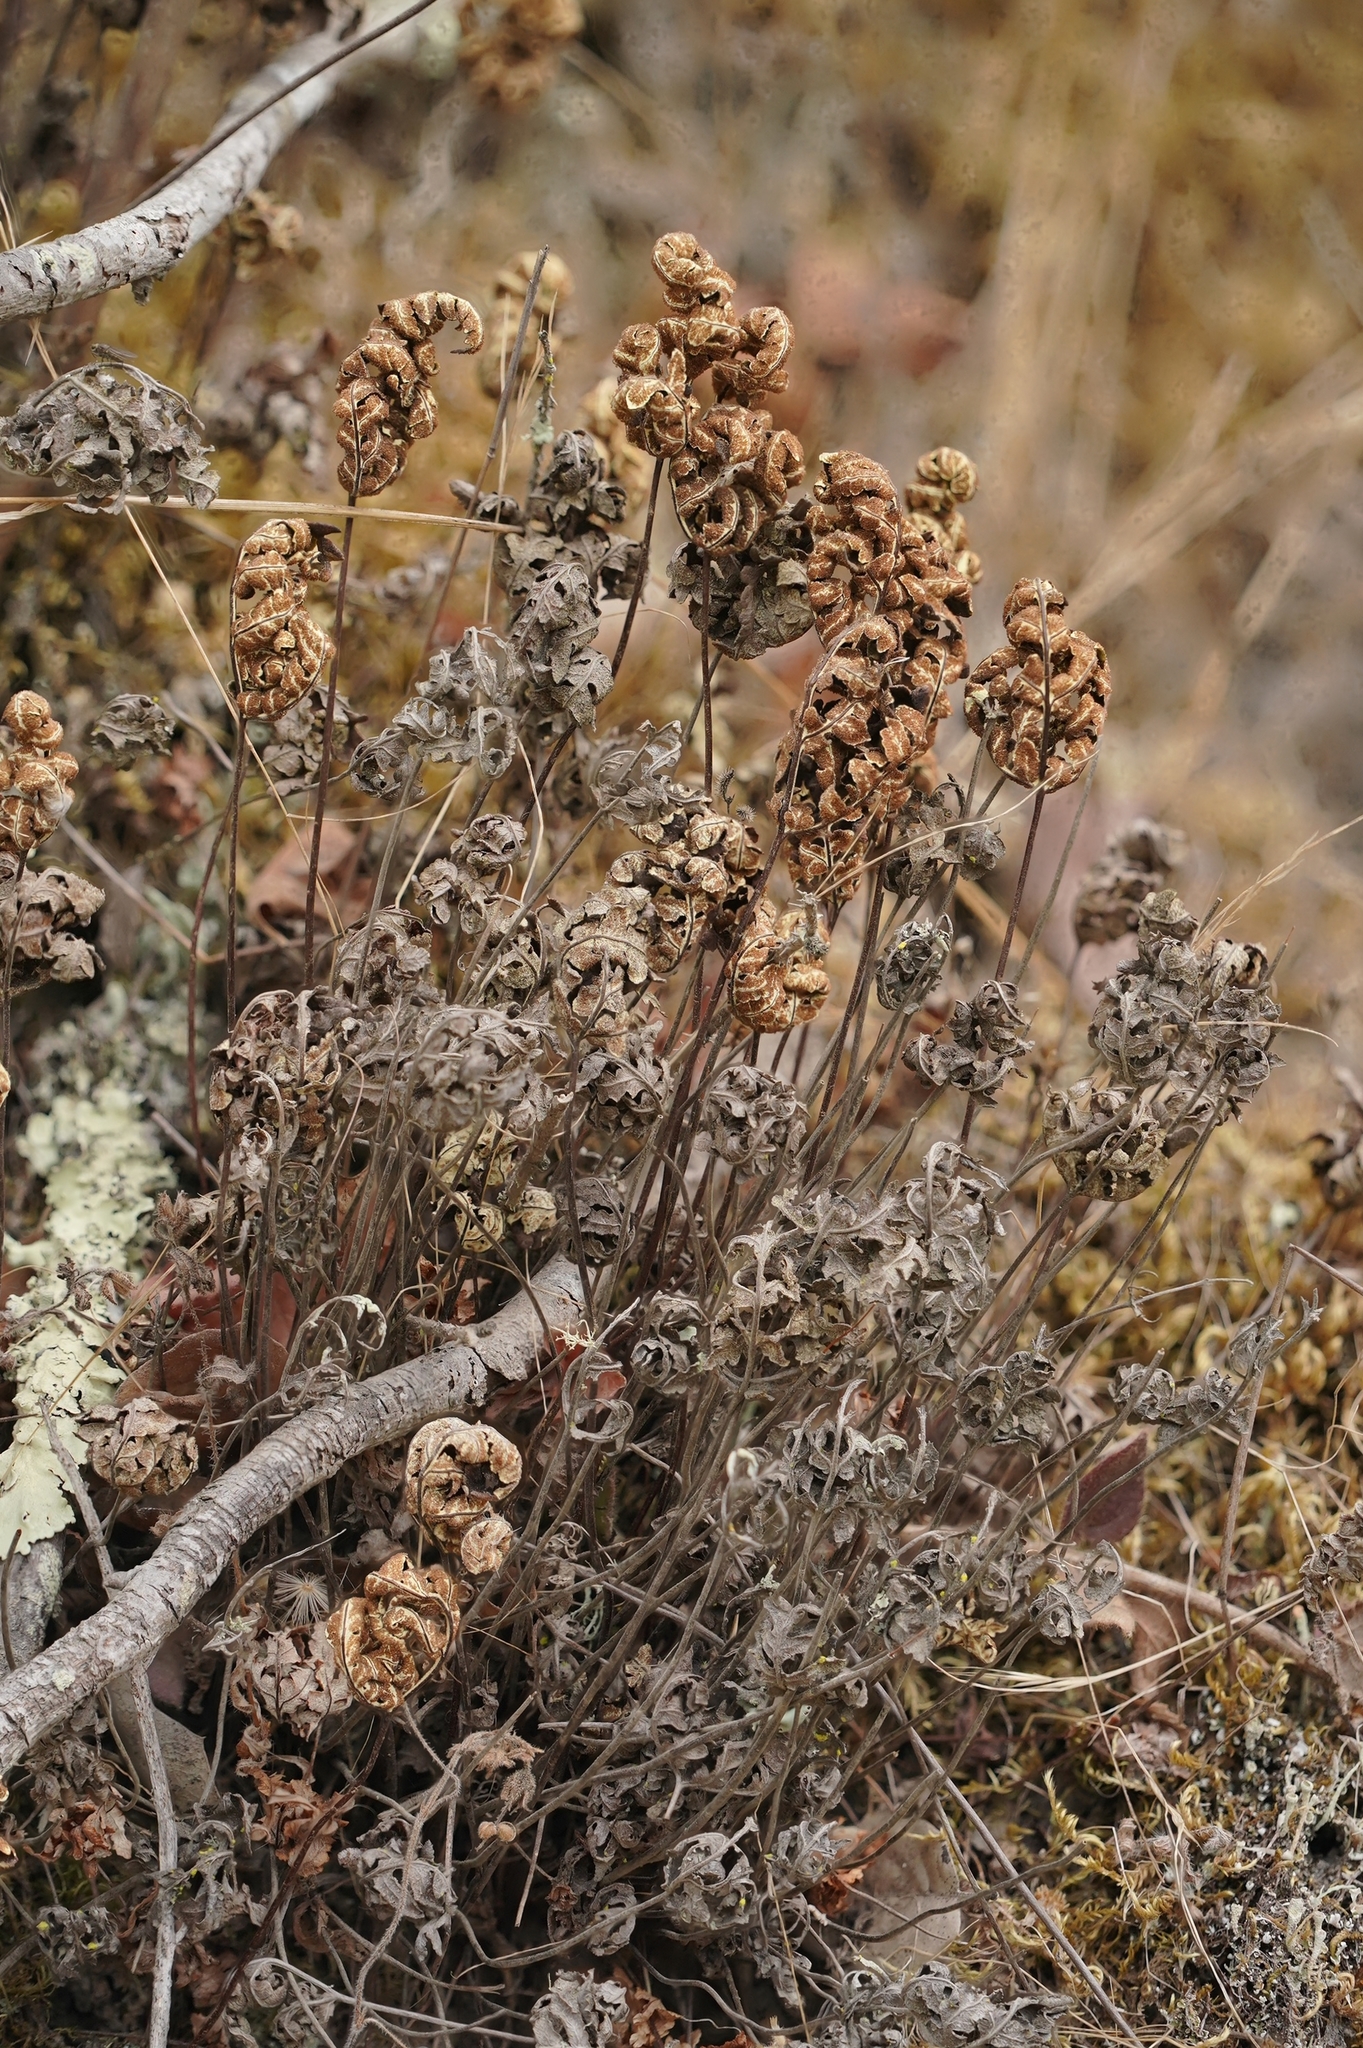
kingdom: Plantae
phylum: Tracheophyta
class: Polypodiopsida
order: Polypodiales
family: Pteridaceae
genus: Pentagramma
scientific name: Pentagramma triangularis
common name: Gold fern
